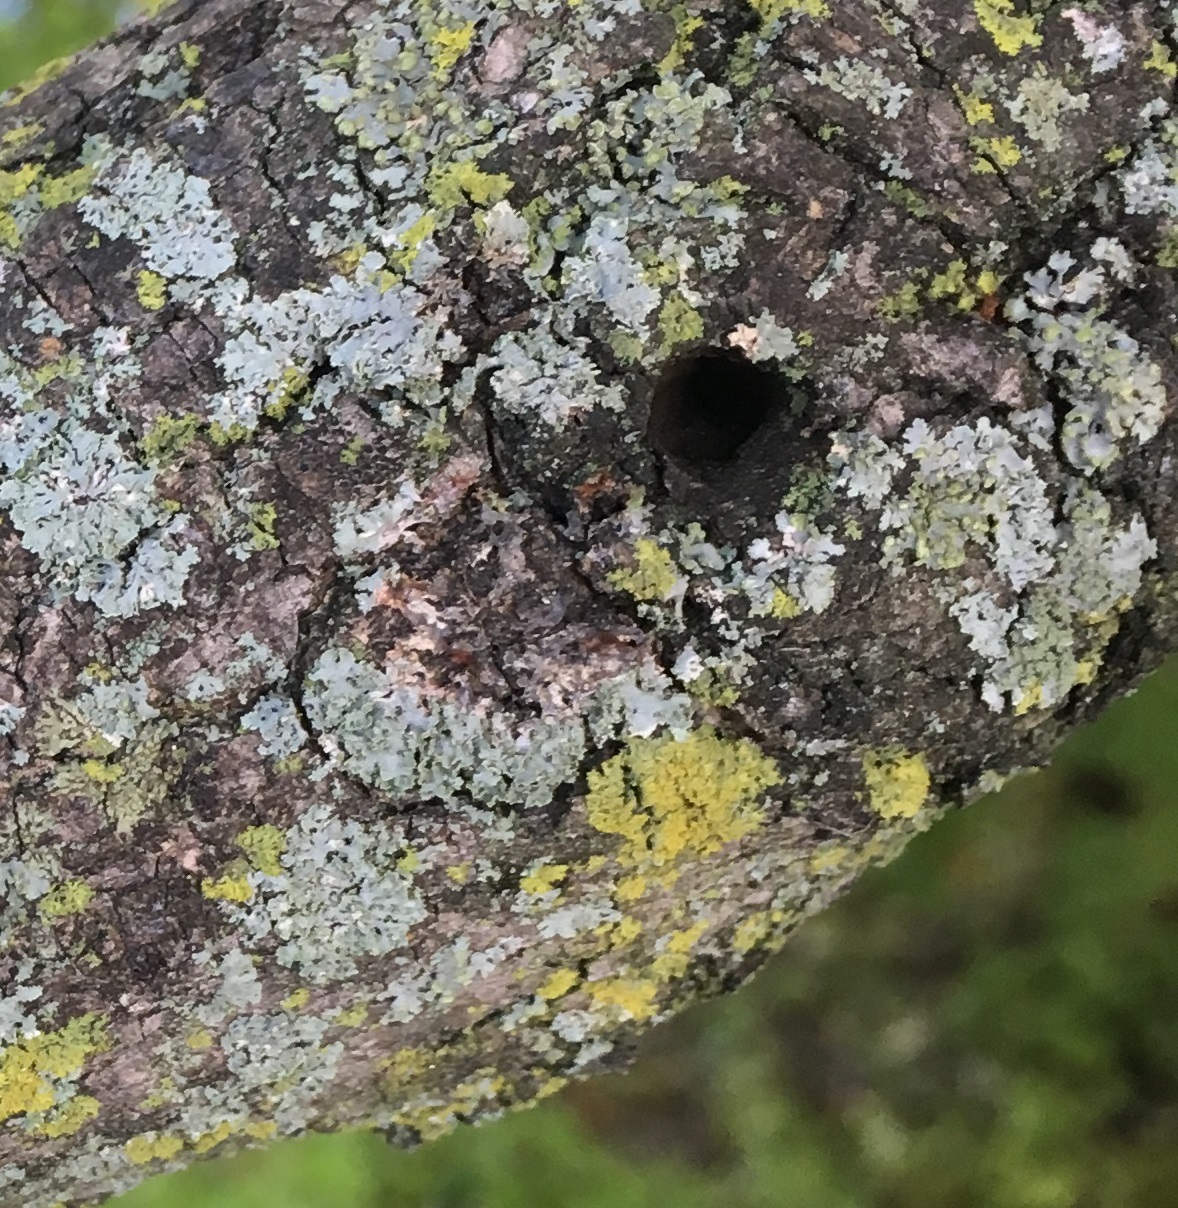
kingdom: Fungi
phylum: Ascomycota
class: Lecanoromycetes
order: Caliciales
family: Physciaceae
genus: Physcia
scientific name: Physcia millegrana
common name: Rosette lichen
